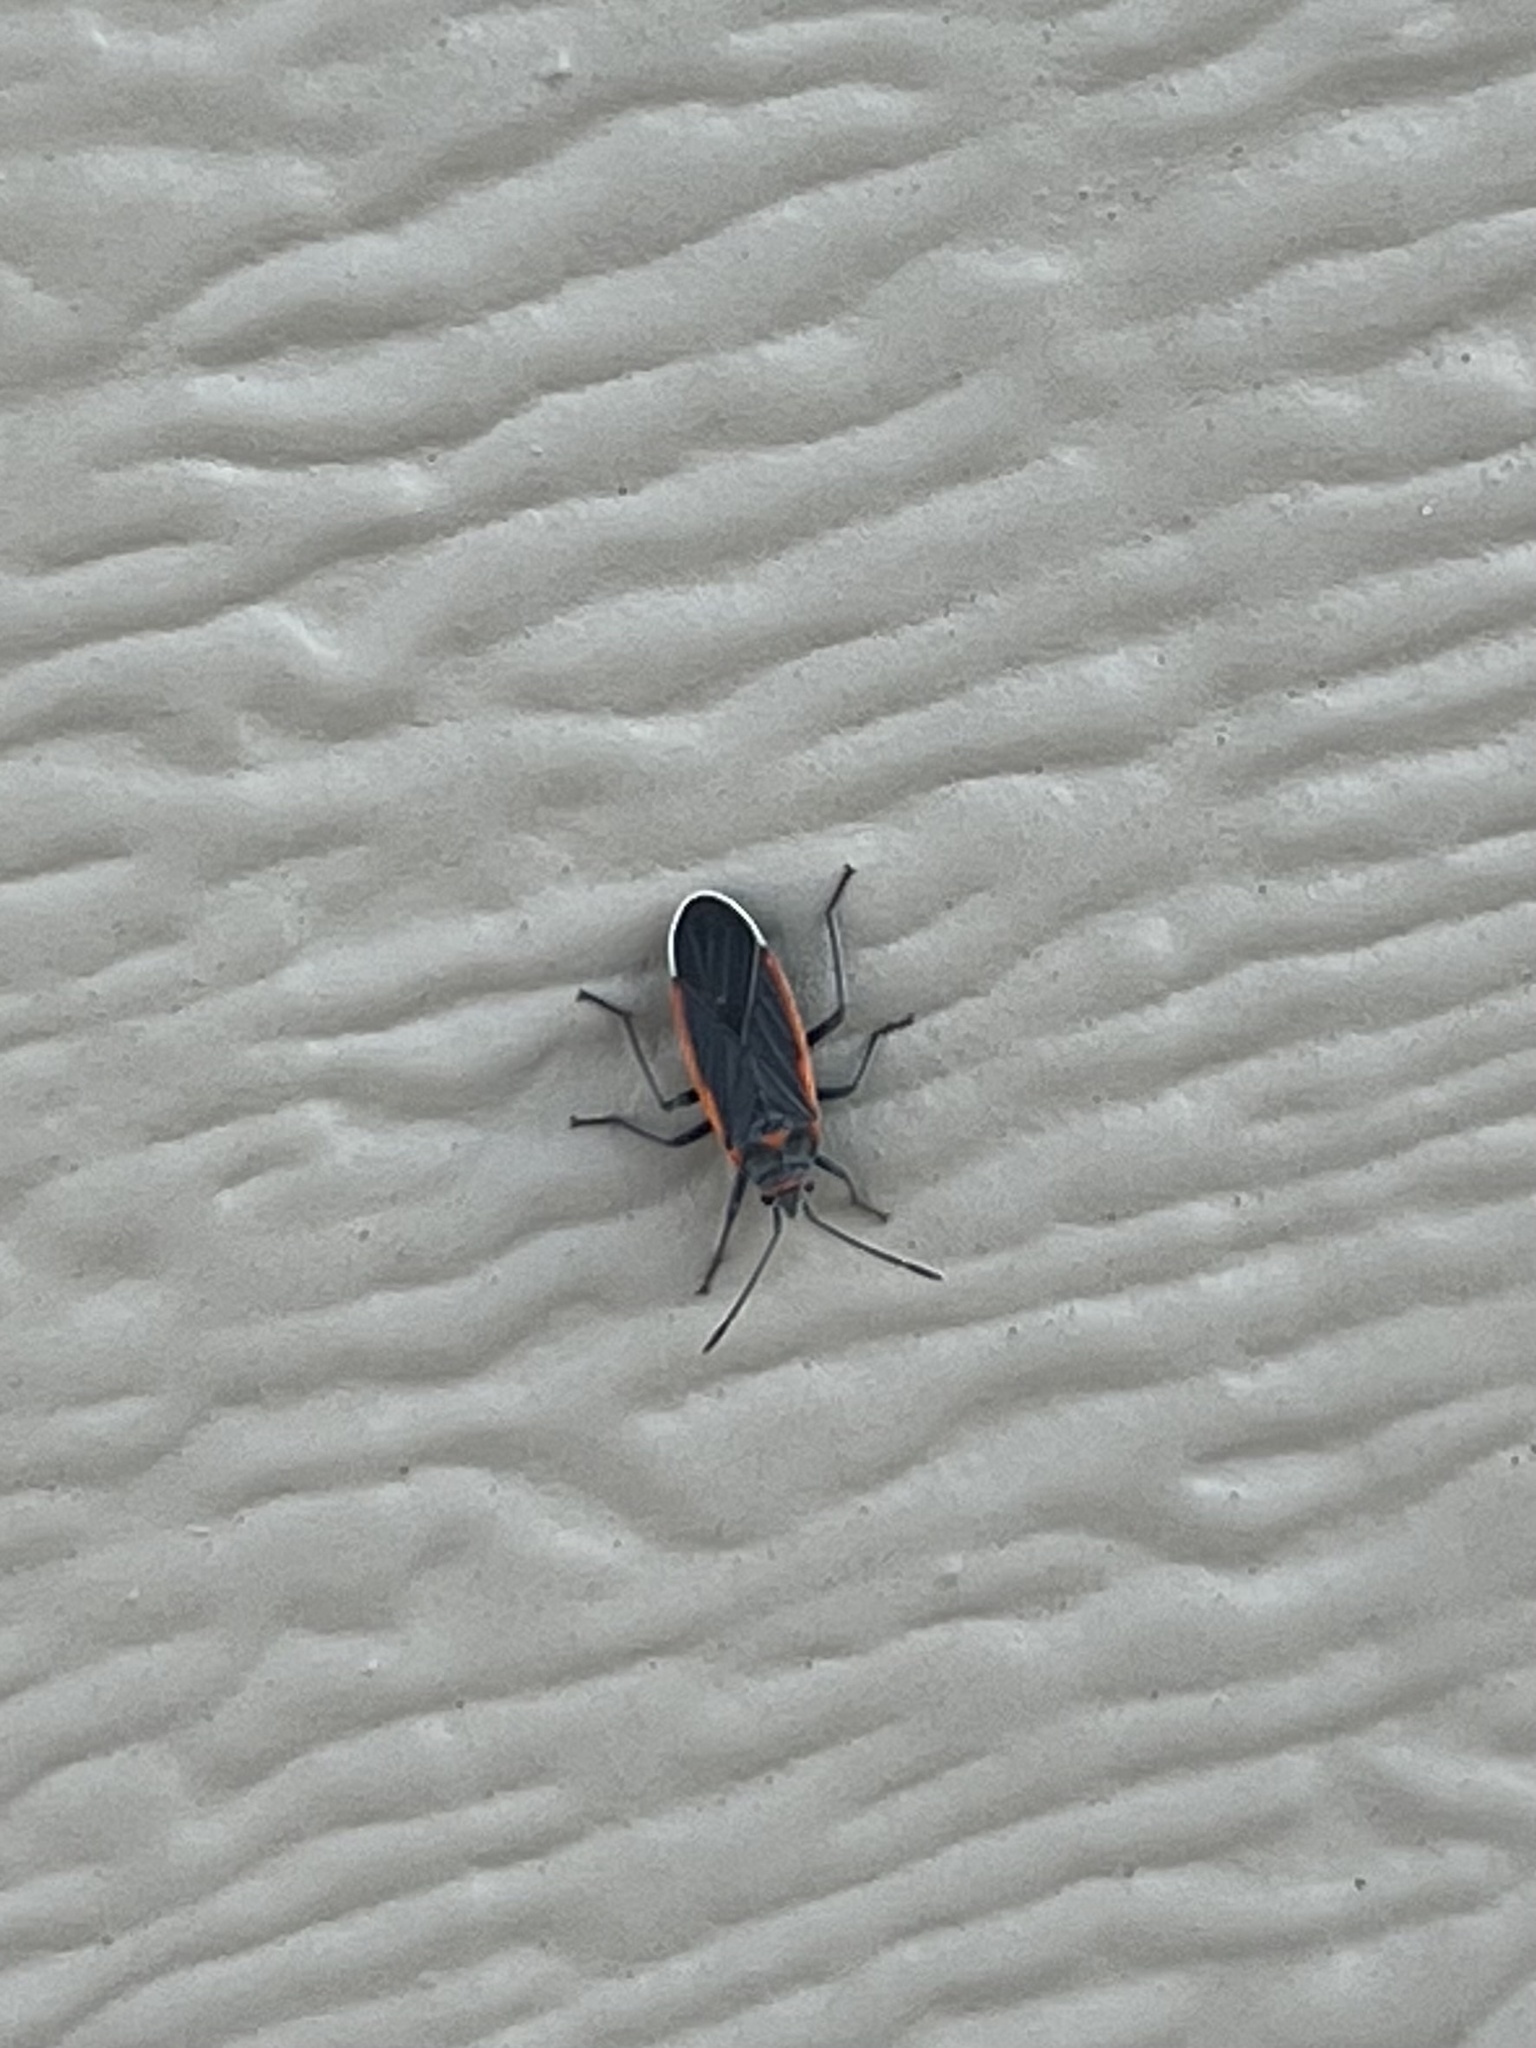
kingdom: Animalia
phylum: Arthropoda
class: Insecta
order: Hemiptera
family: Lygaeidae
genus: Melacoryphus
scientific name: Melacoryphus lateralis
